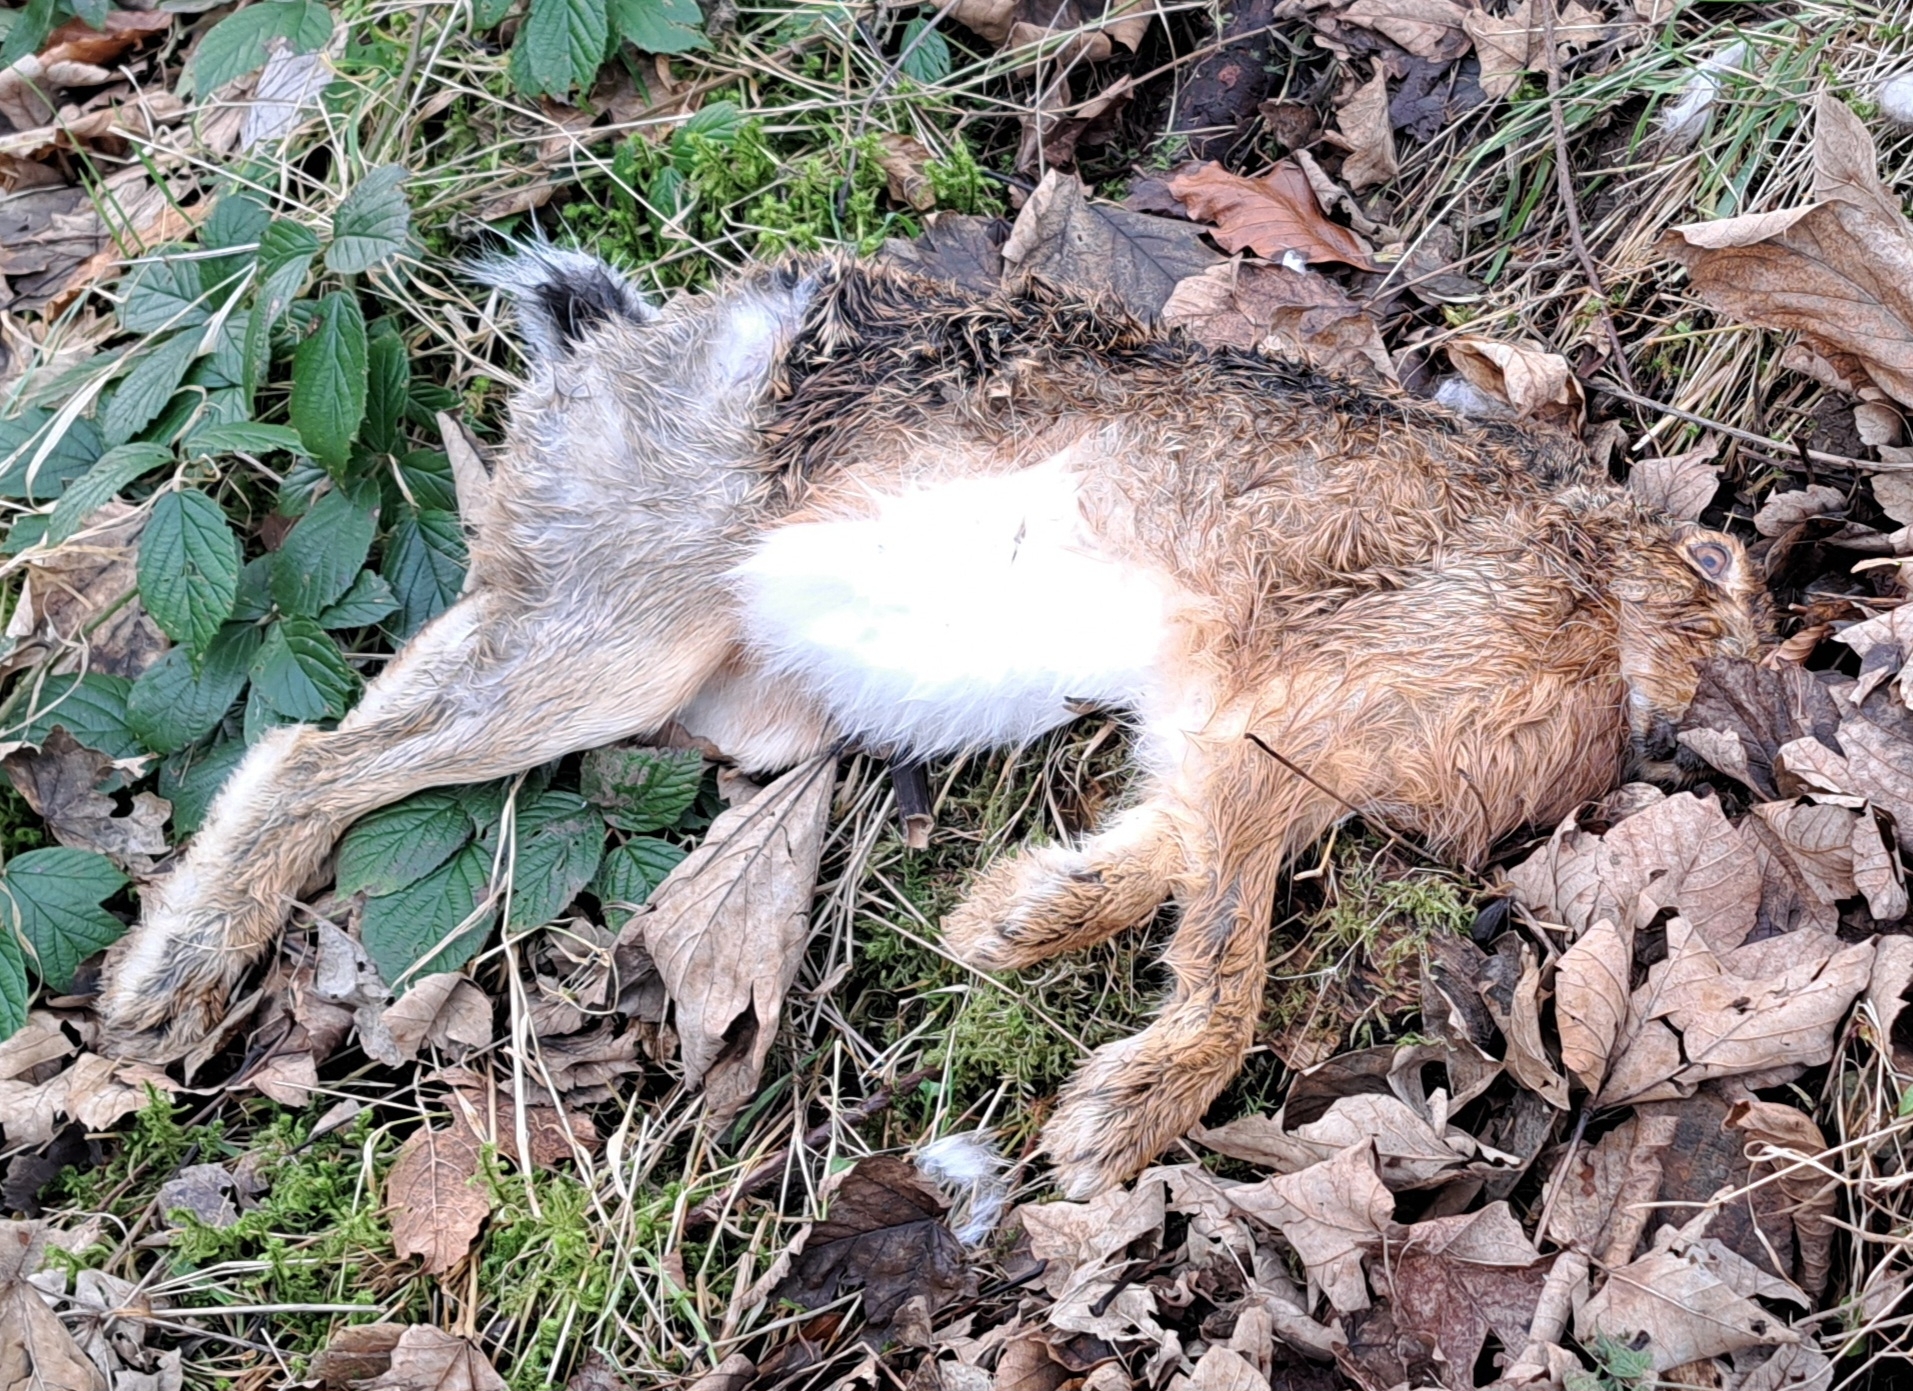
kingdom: Animalia
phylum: Chordata
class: Mammalia
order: Lagomorpha
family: Leporidae
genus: Lepus
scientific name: Lepus europaeus
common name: European hare
